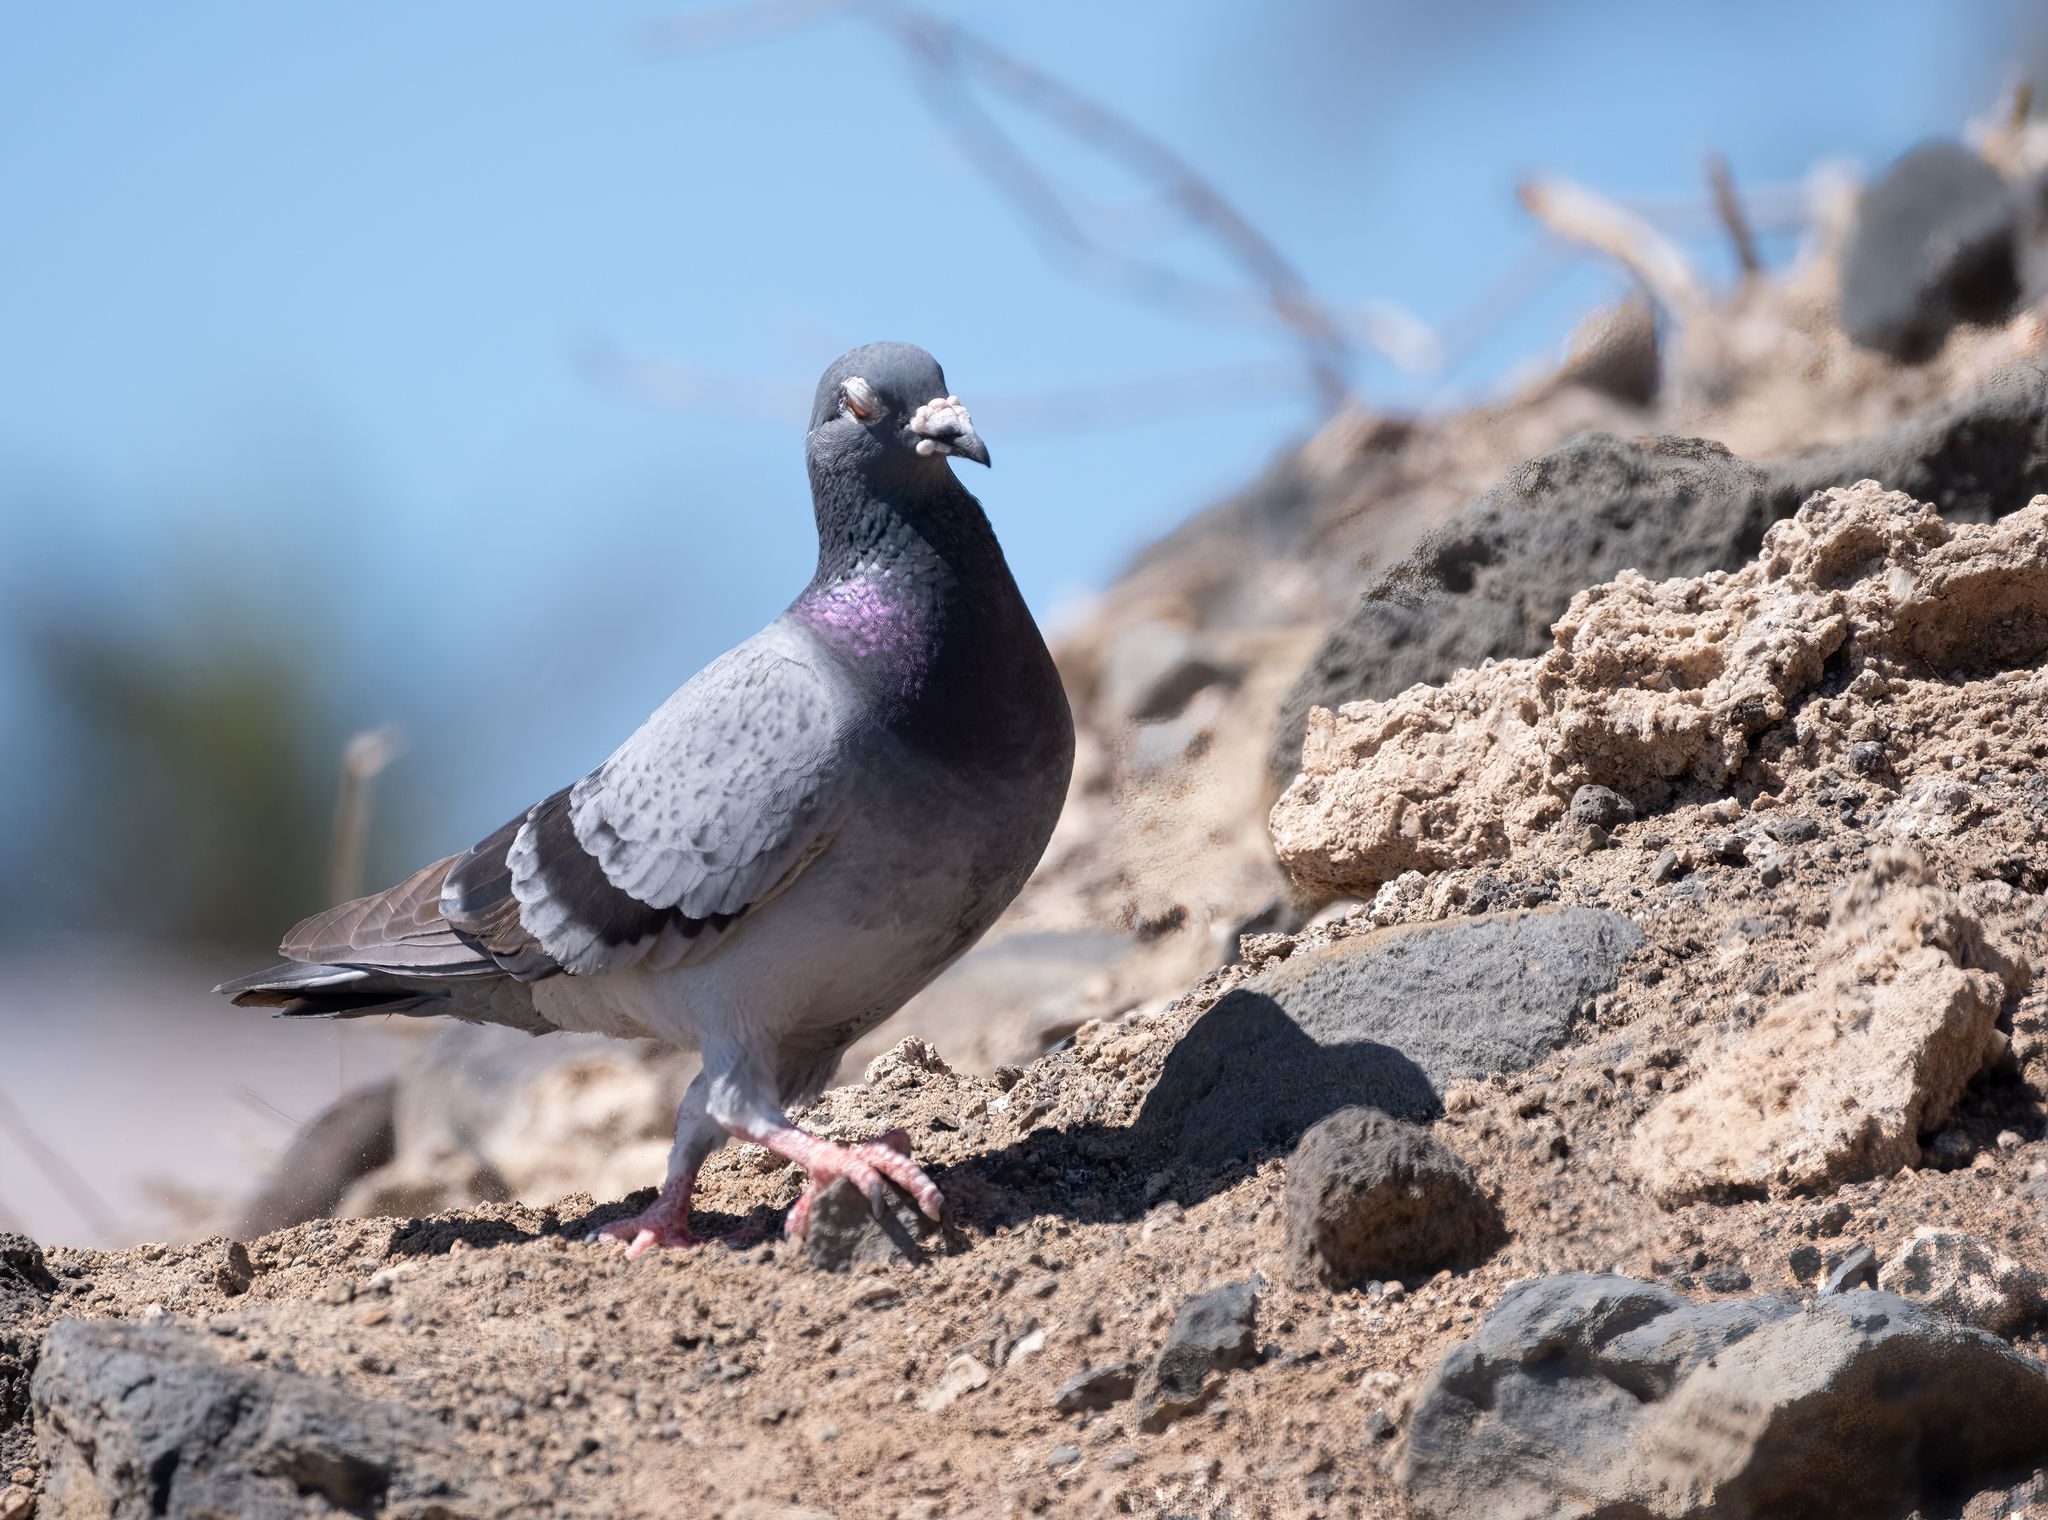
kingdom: Animalia
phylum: Chordata
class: Aves
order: Columbiformes
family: Columbidae
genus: Columba
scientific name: Columba livia
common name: Rock pigeon
